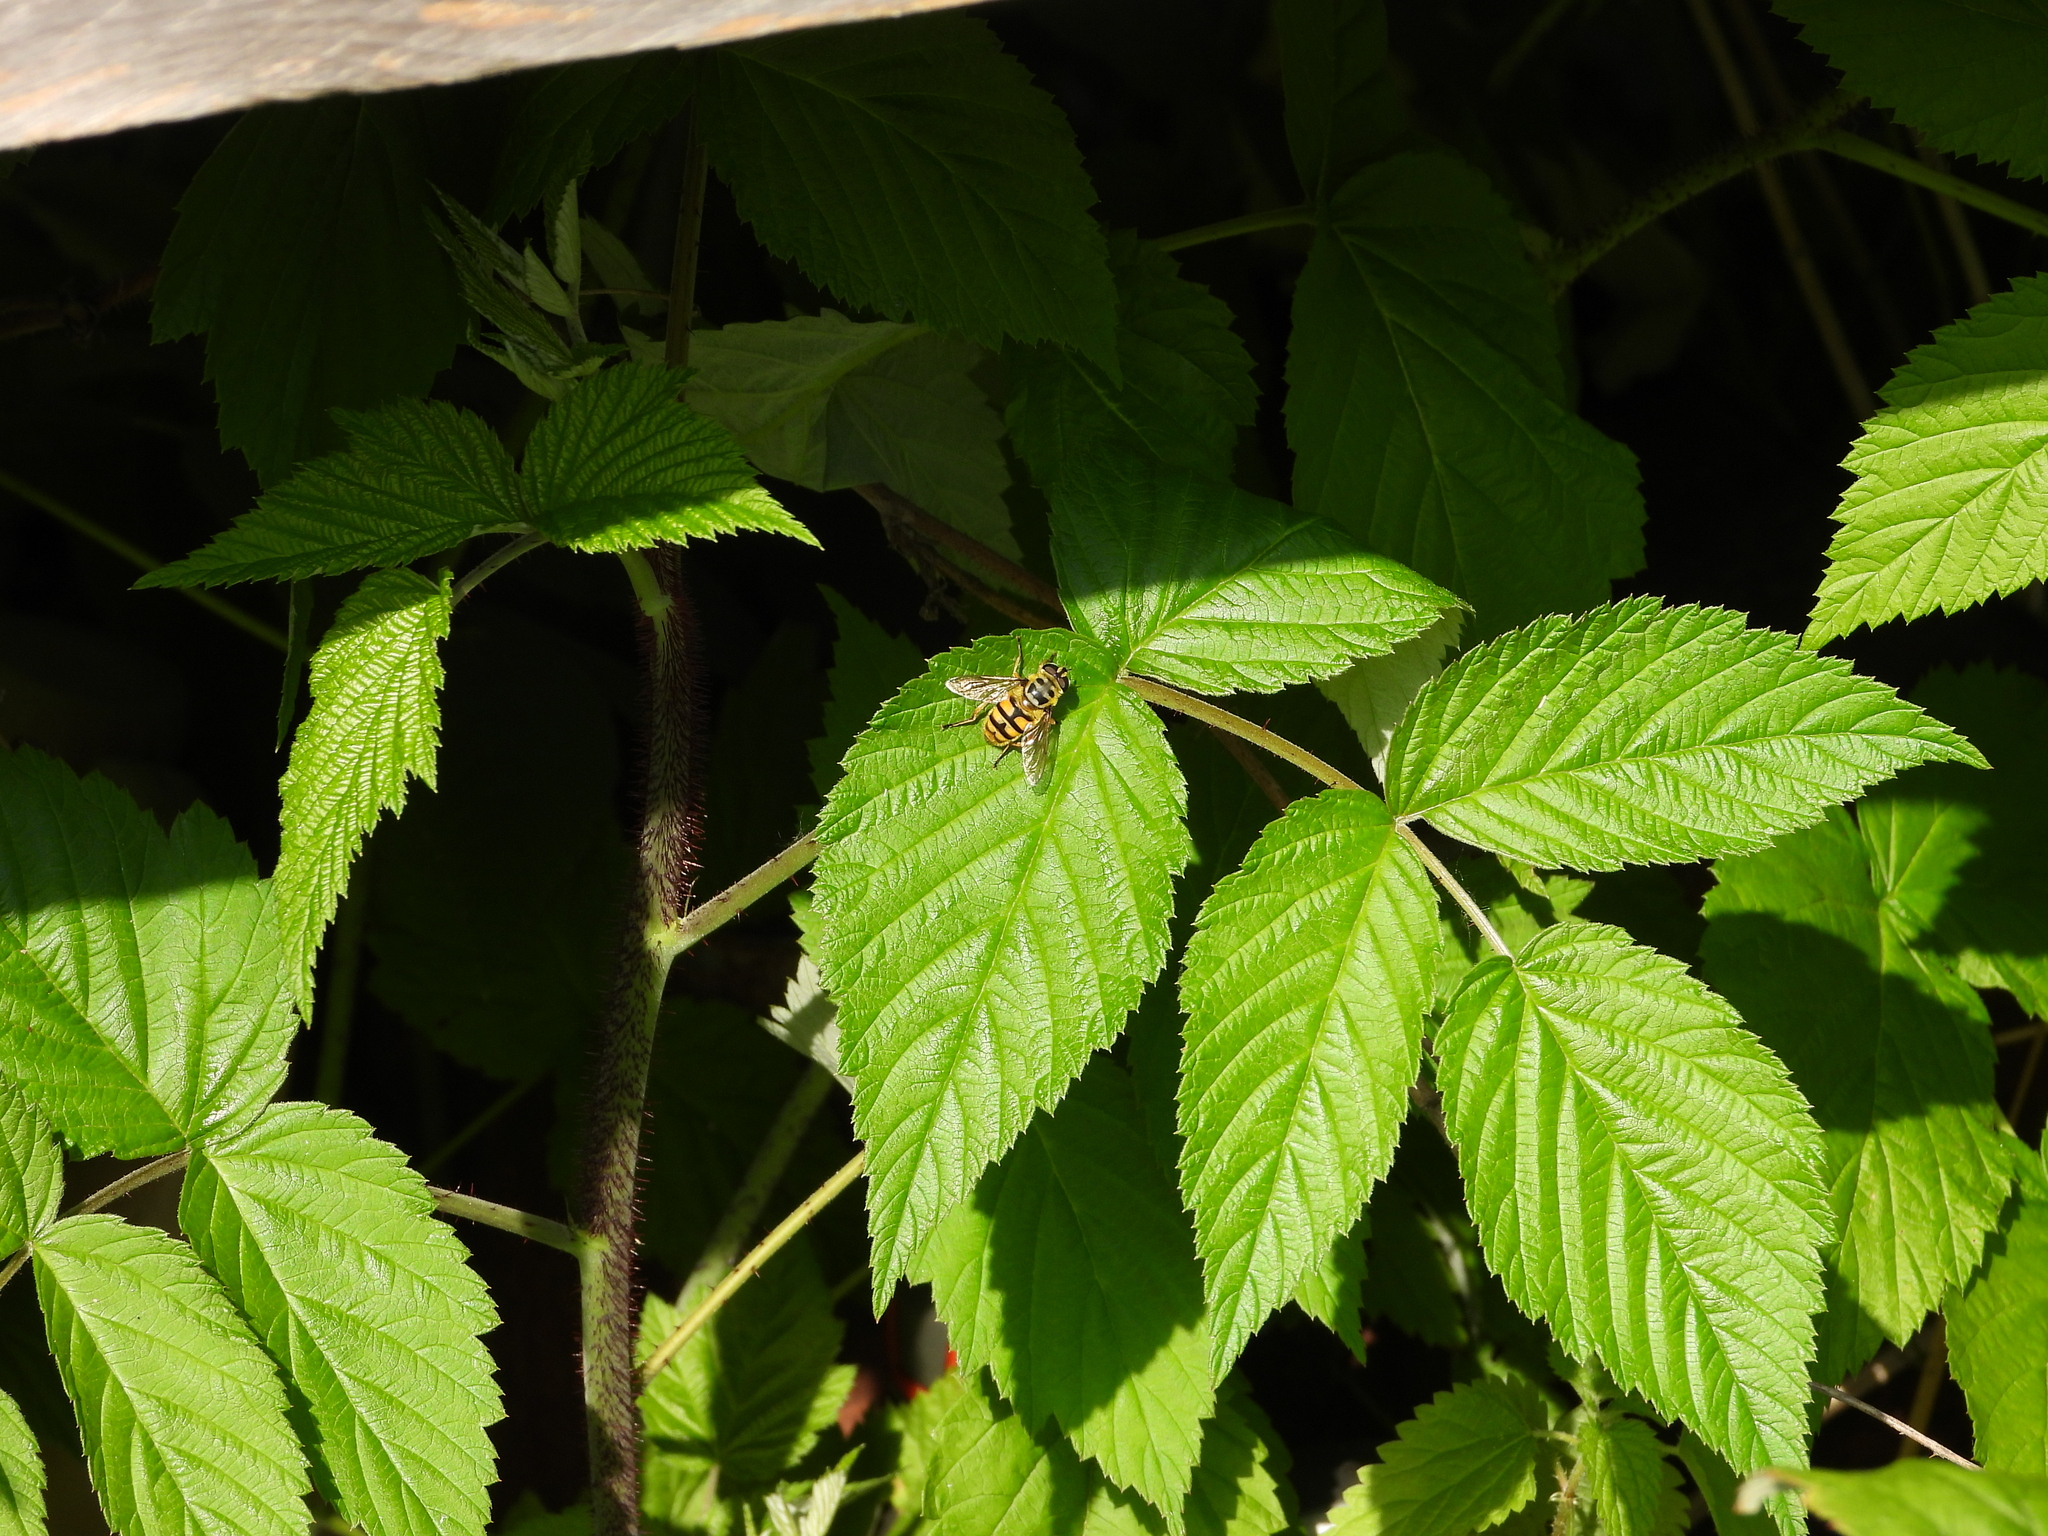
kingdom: Animalia
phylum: Arthropoda
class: Insecta
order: Diptera
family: Syrphidae
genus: Myathropa
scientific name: Myathropa florea
